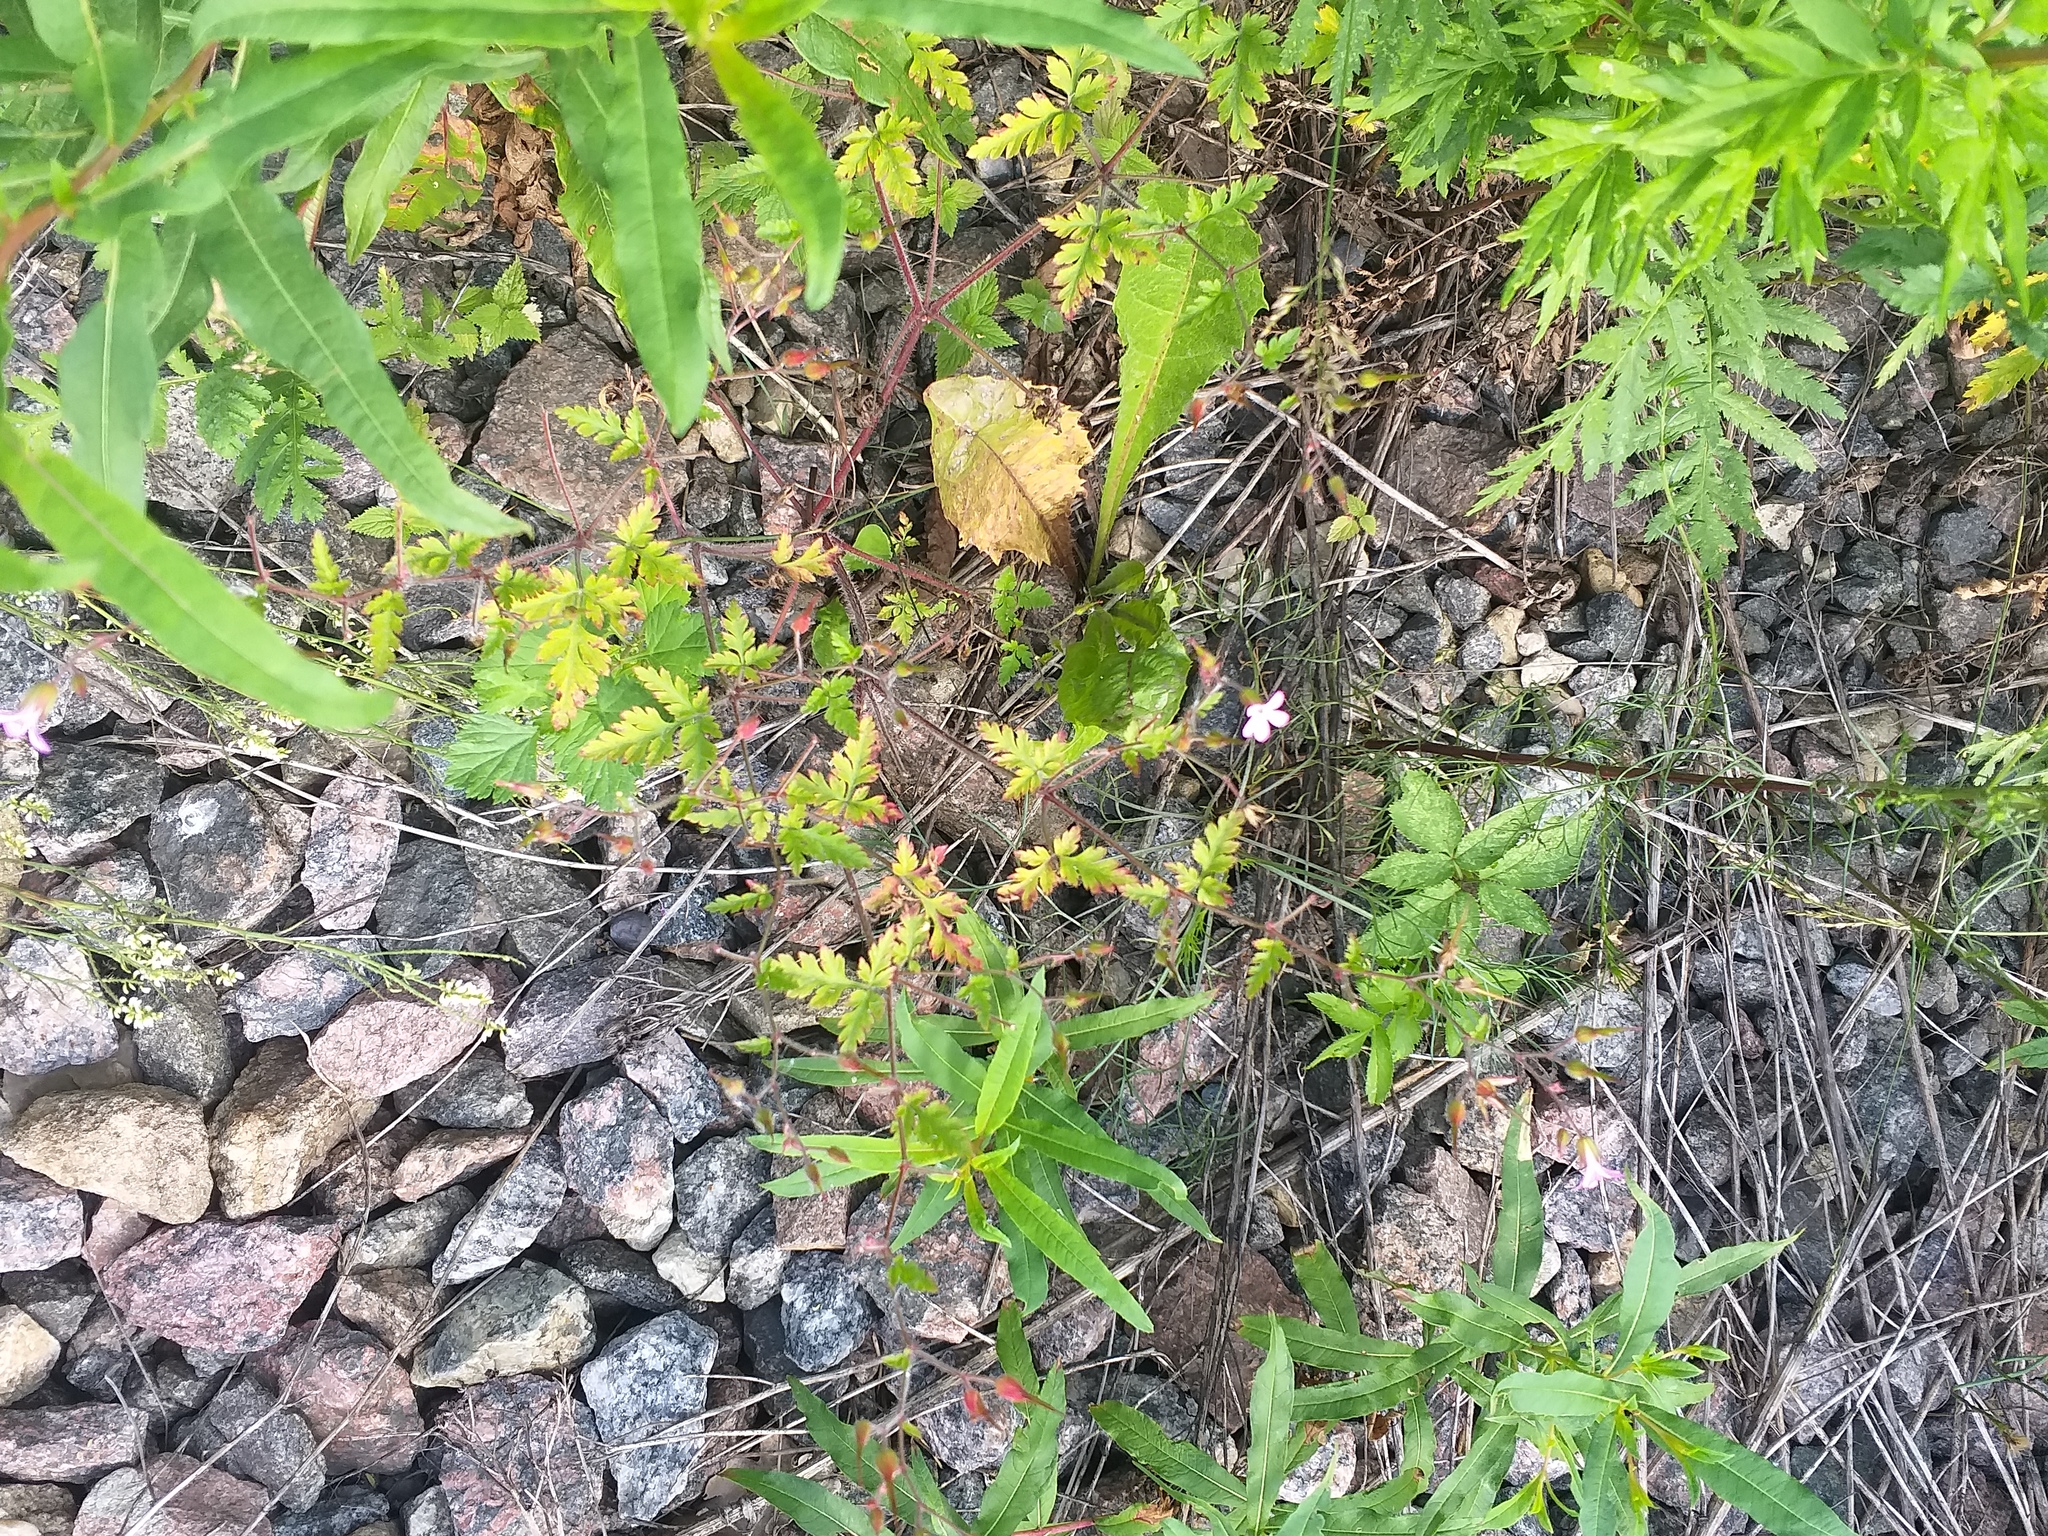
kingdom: Plantae
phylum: Tracheophyta
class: Magnoliopsida
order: Geraniales
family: Geraniaceae
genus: Geranium
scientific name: Geranium robertianum
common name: Herb-robert
